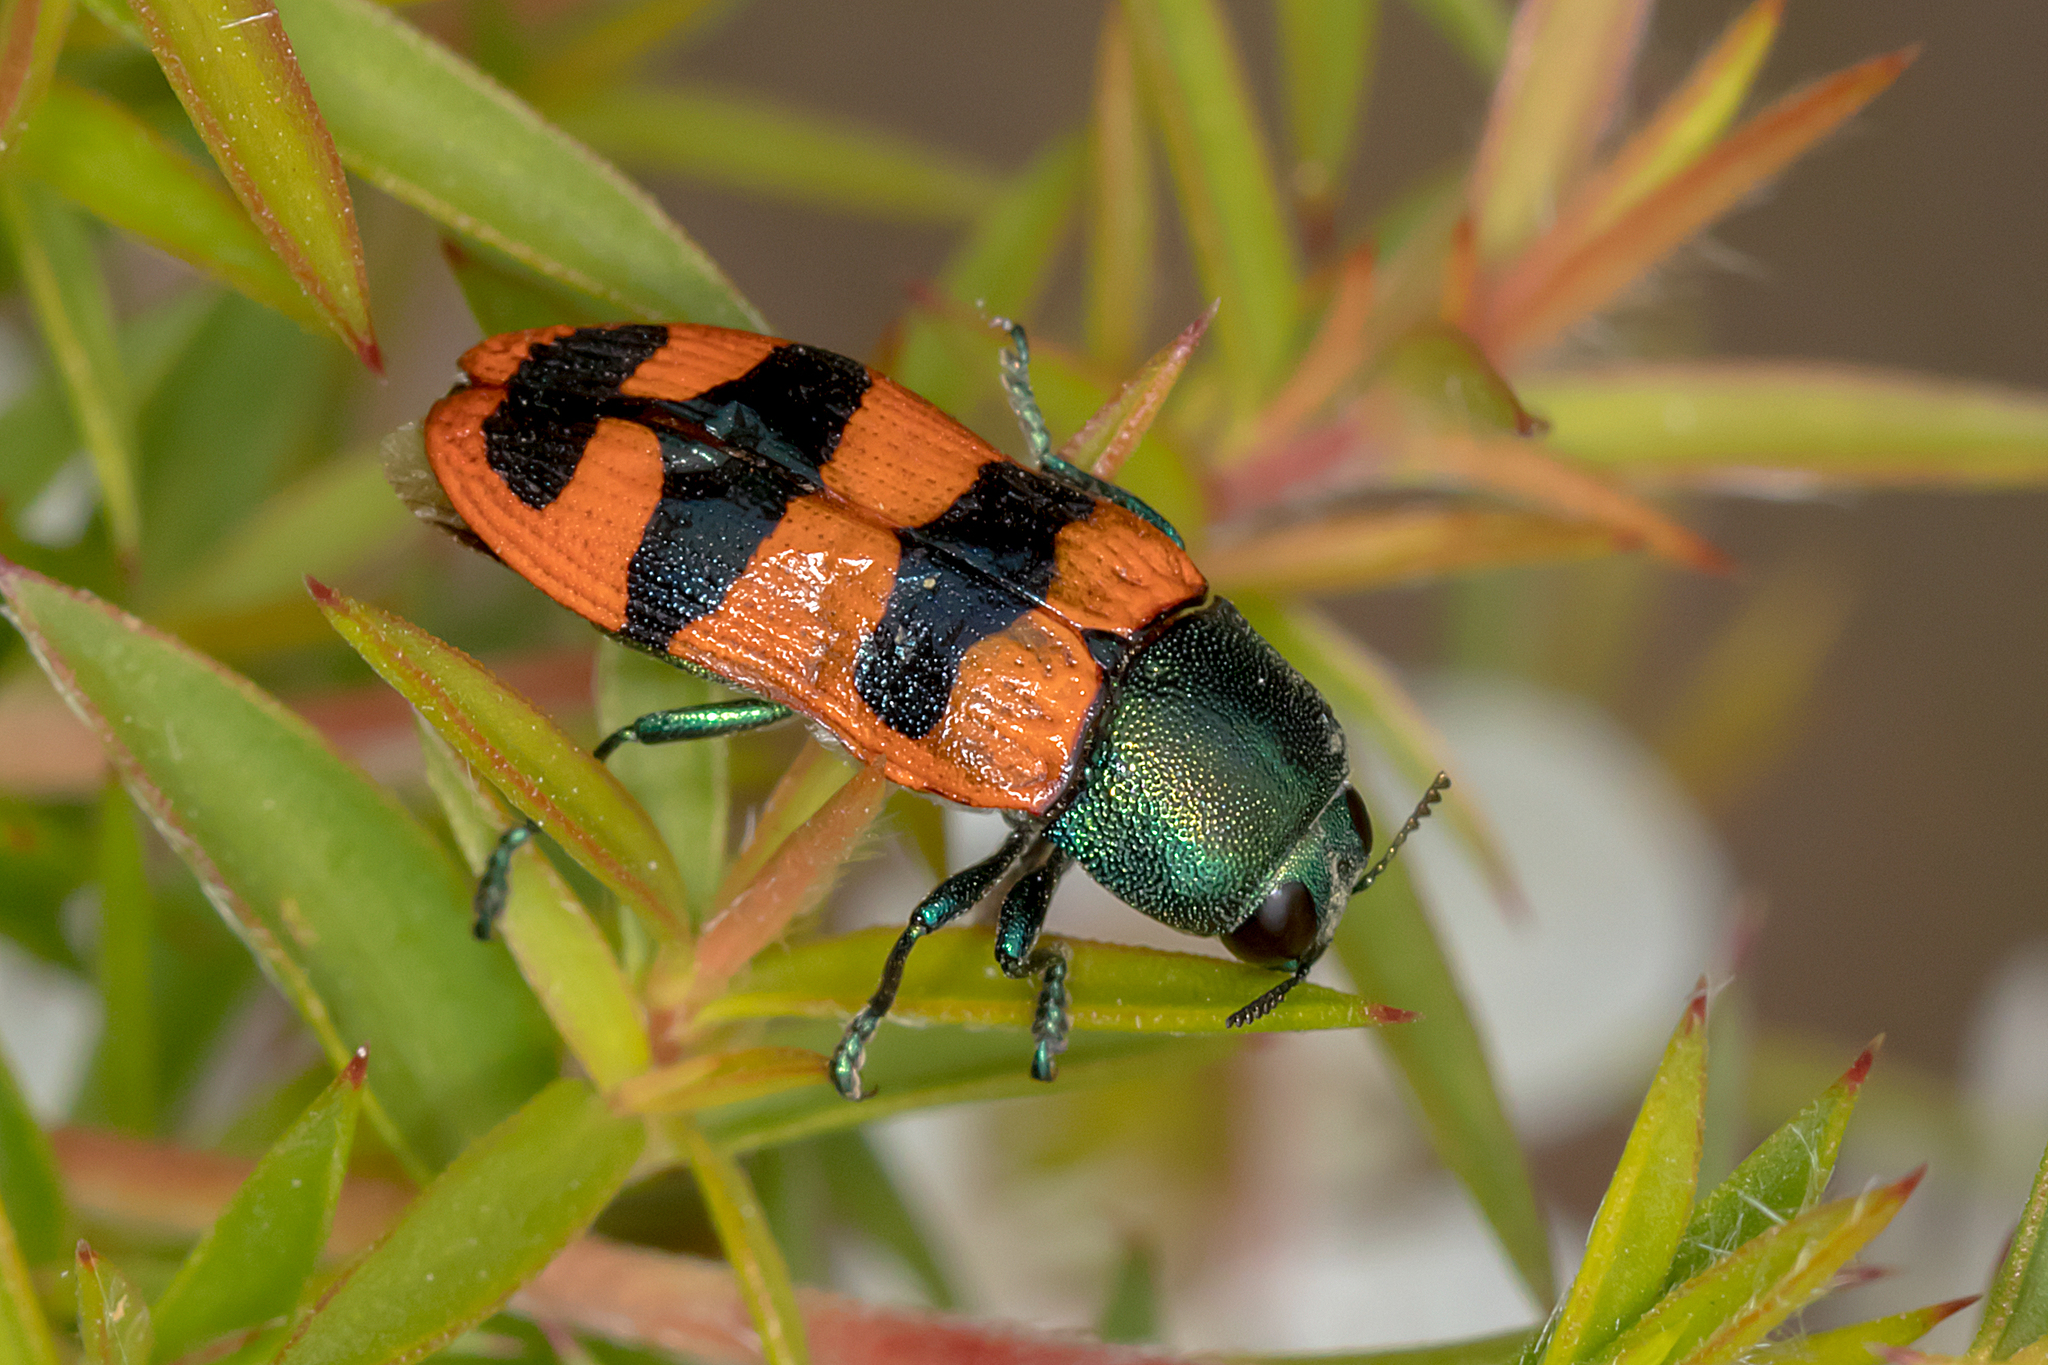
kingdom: Animalia
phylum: Arthropoda
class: Insecta
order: Coleoptera
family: Buprestidae
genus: Castiarina
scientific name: Castiarina crenata
